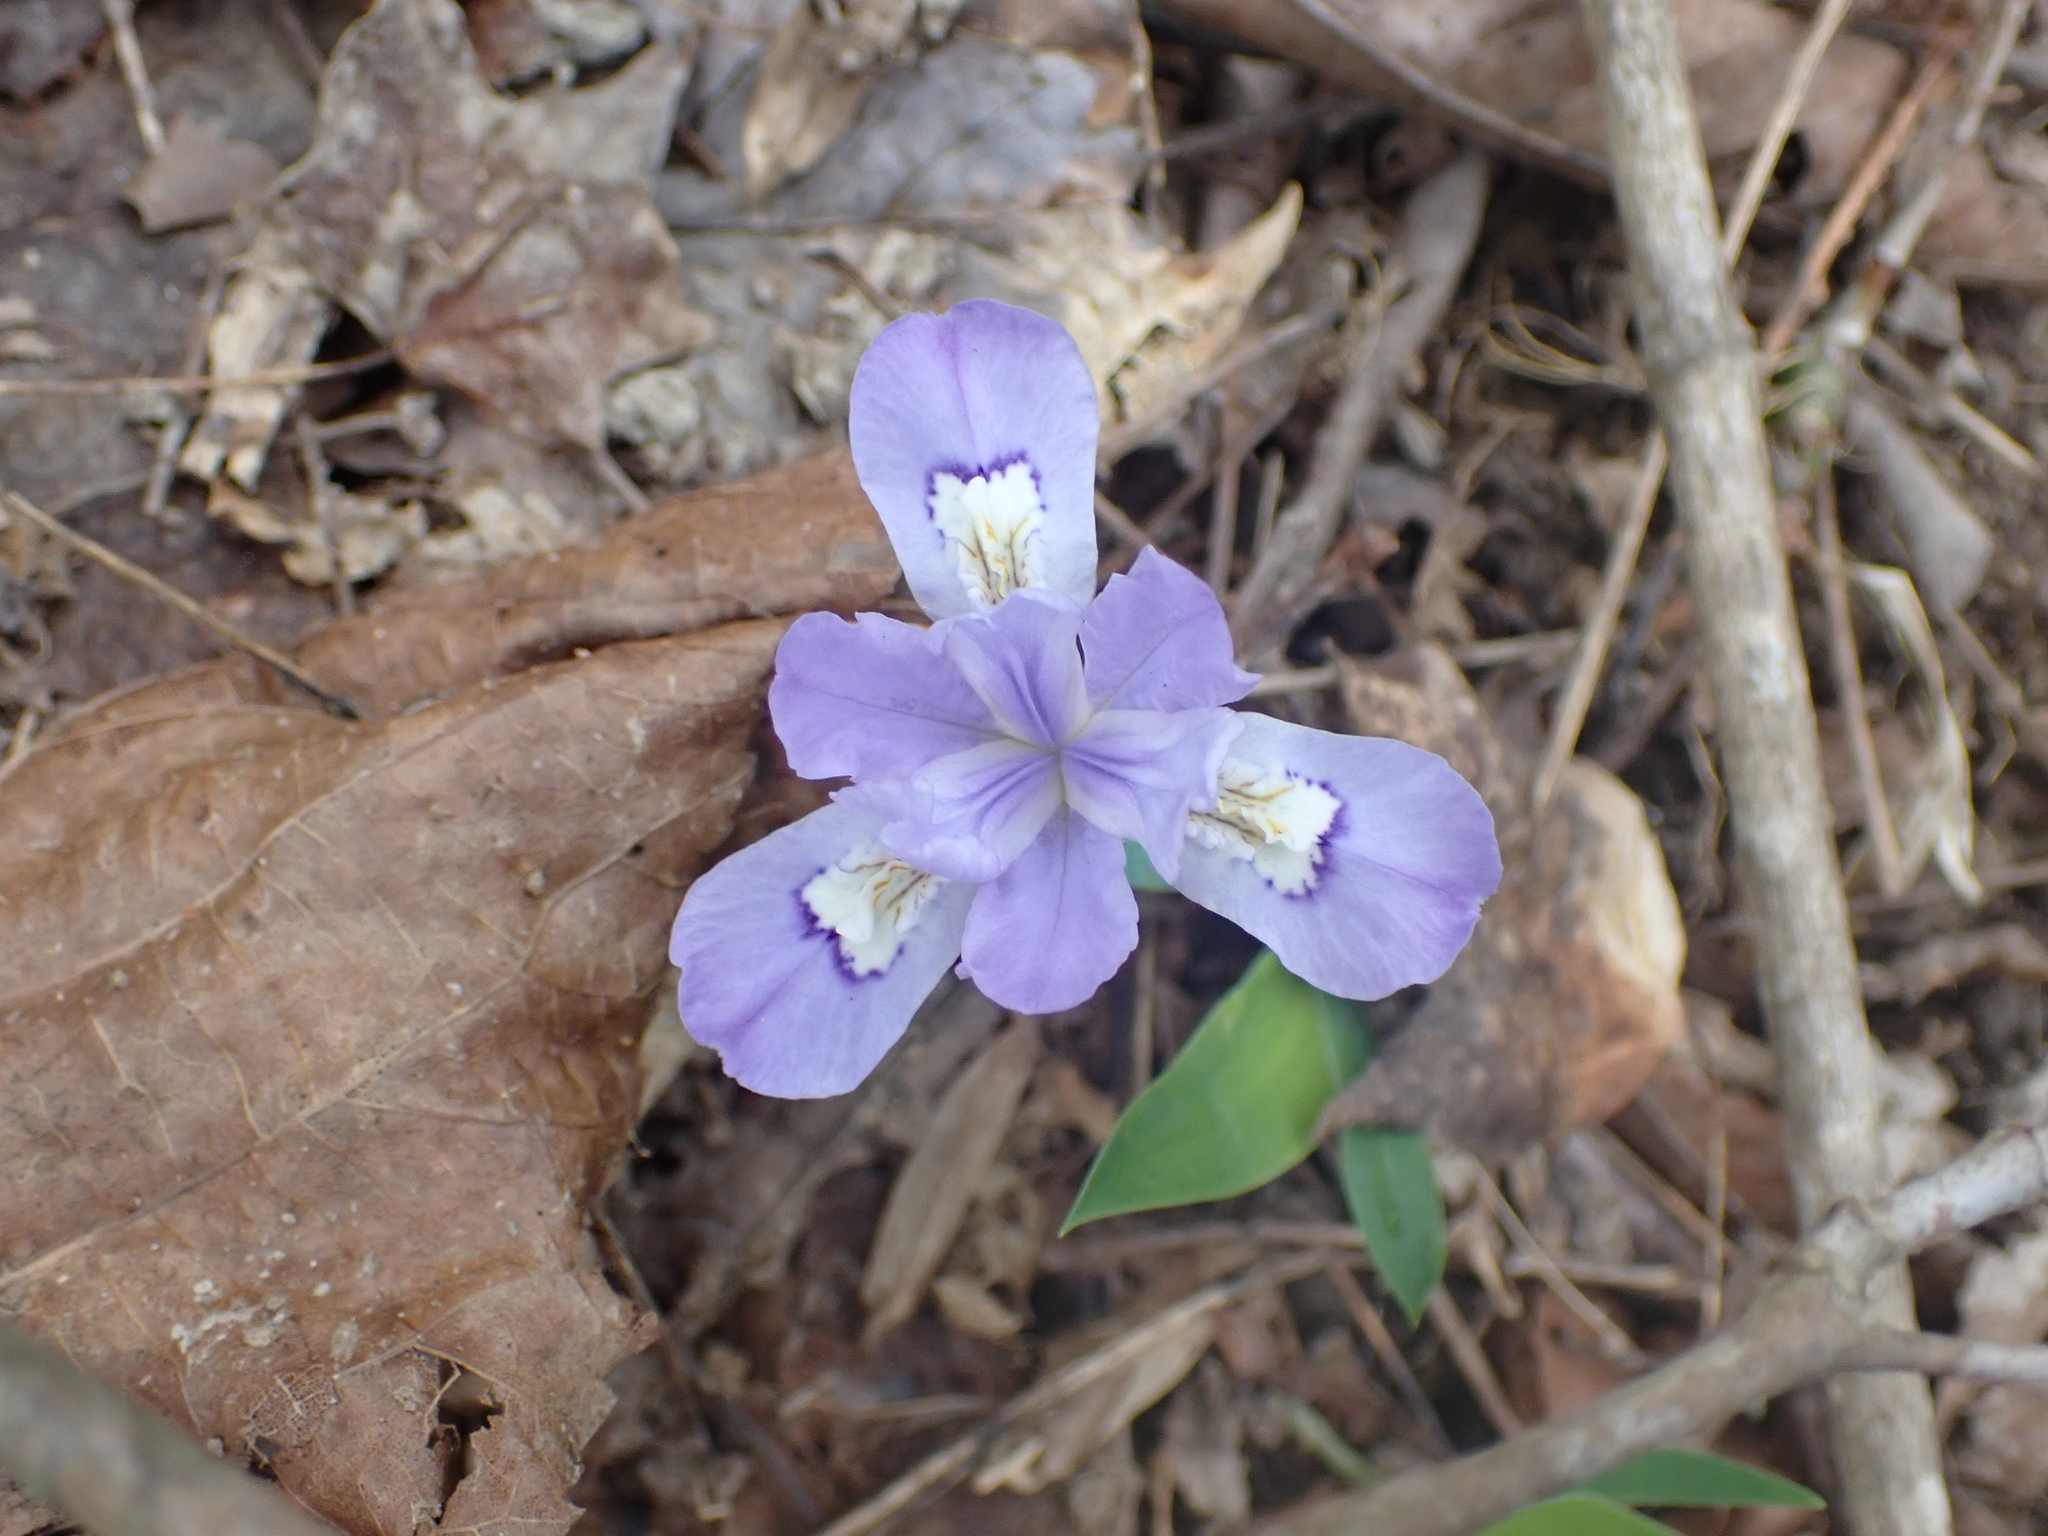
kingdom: Plantae
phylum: Tracheophyta
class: Liliopsida
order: Asparagales
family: Iridaceae
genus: Iris
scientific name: Iris cristata
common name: Crested iris
